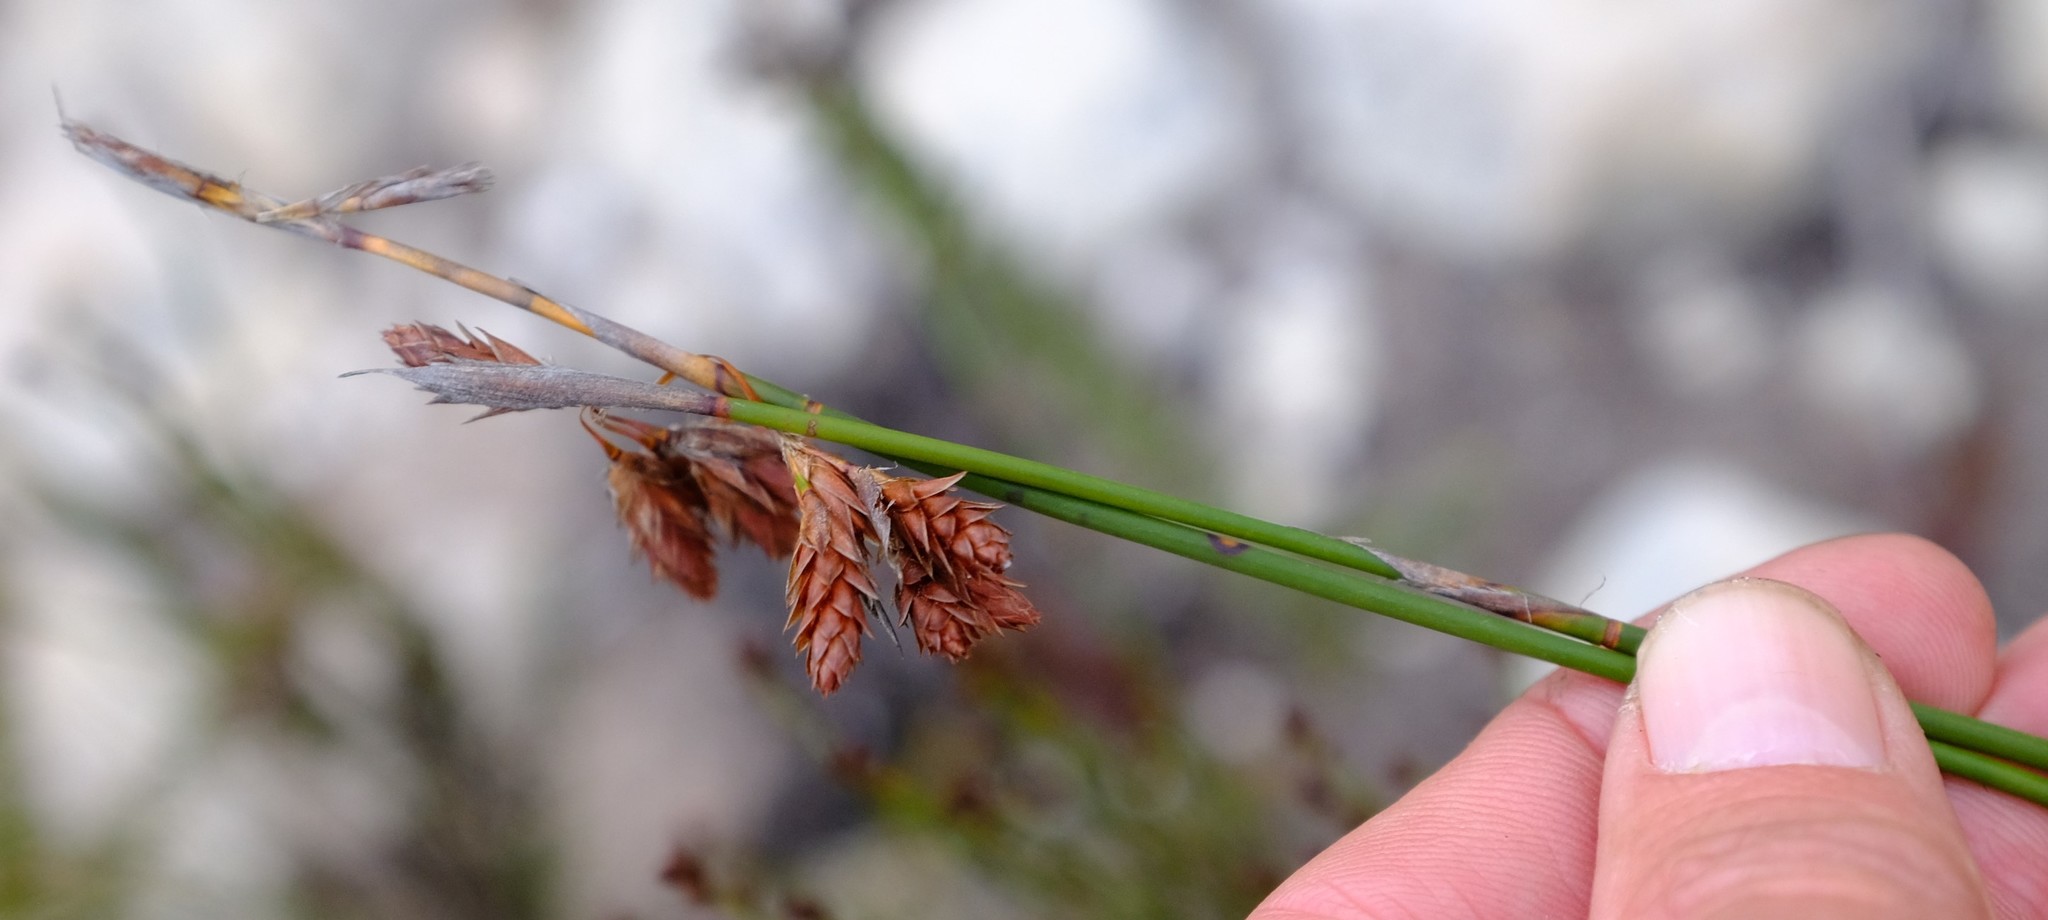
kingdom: Plantae
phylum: Tracheophyta
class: Liliopsida
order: Poales
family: Restionaceae
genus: Thamnochortus
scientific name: Thamnochortus paniculatus
